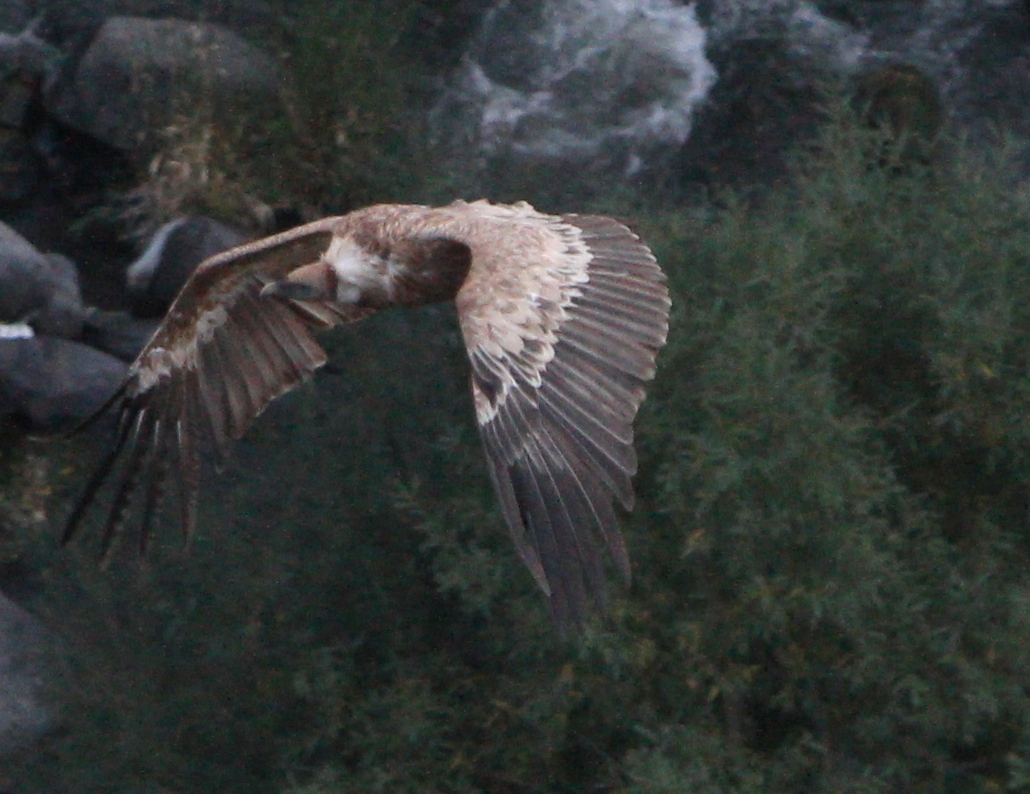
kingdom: Animalia
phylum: Chordata
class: Aves
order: Accipitriformes
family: Accipitridae
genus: Gyps
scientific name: Gyps fulvus
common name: Griffon vulture
